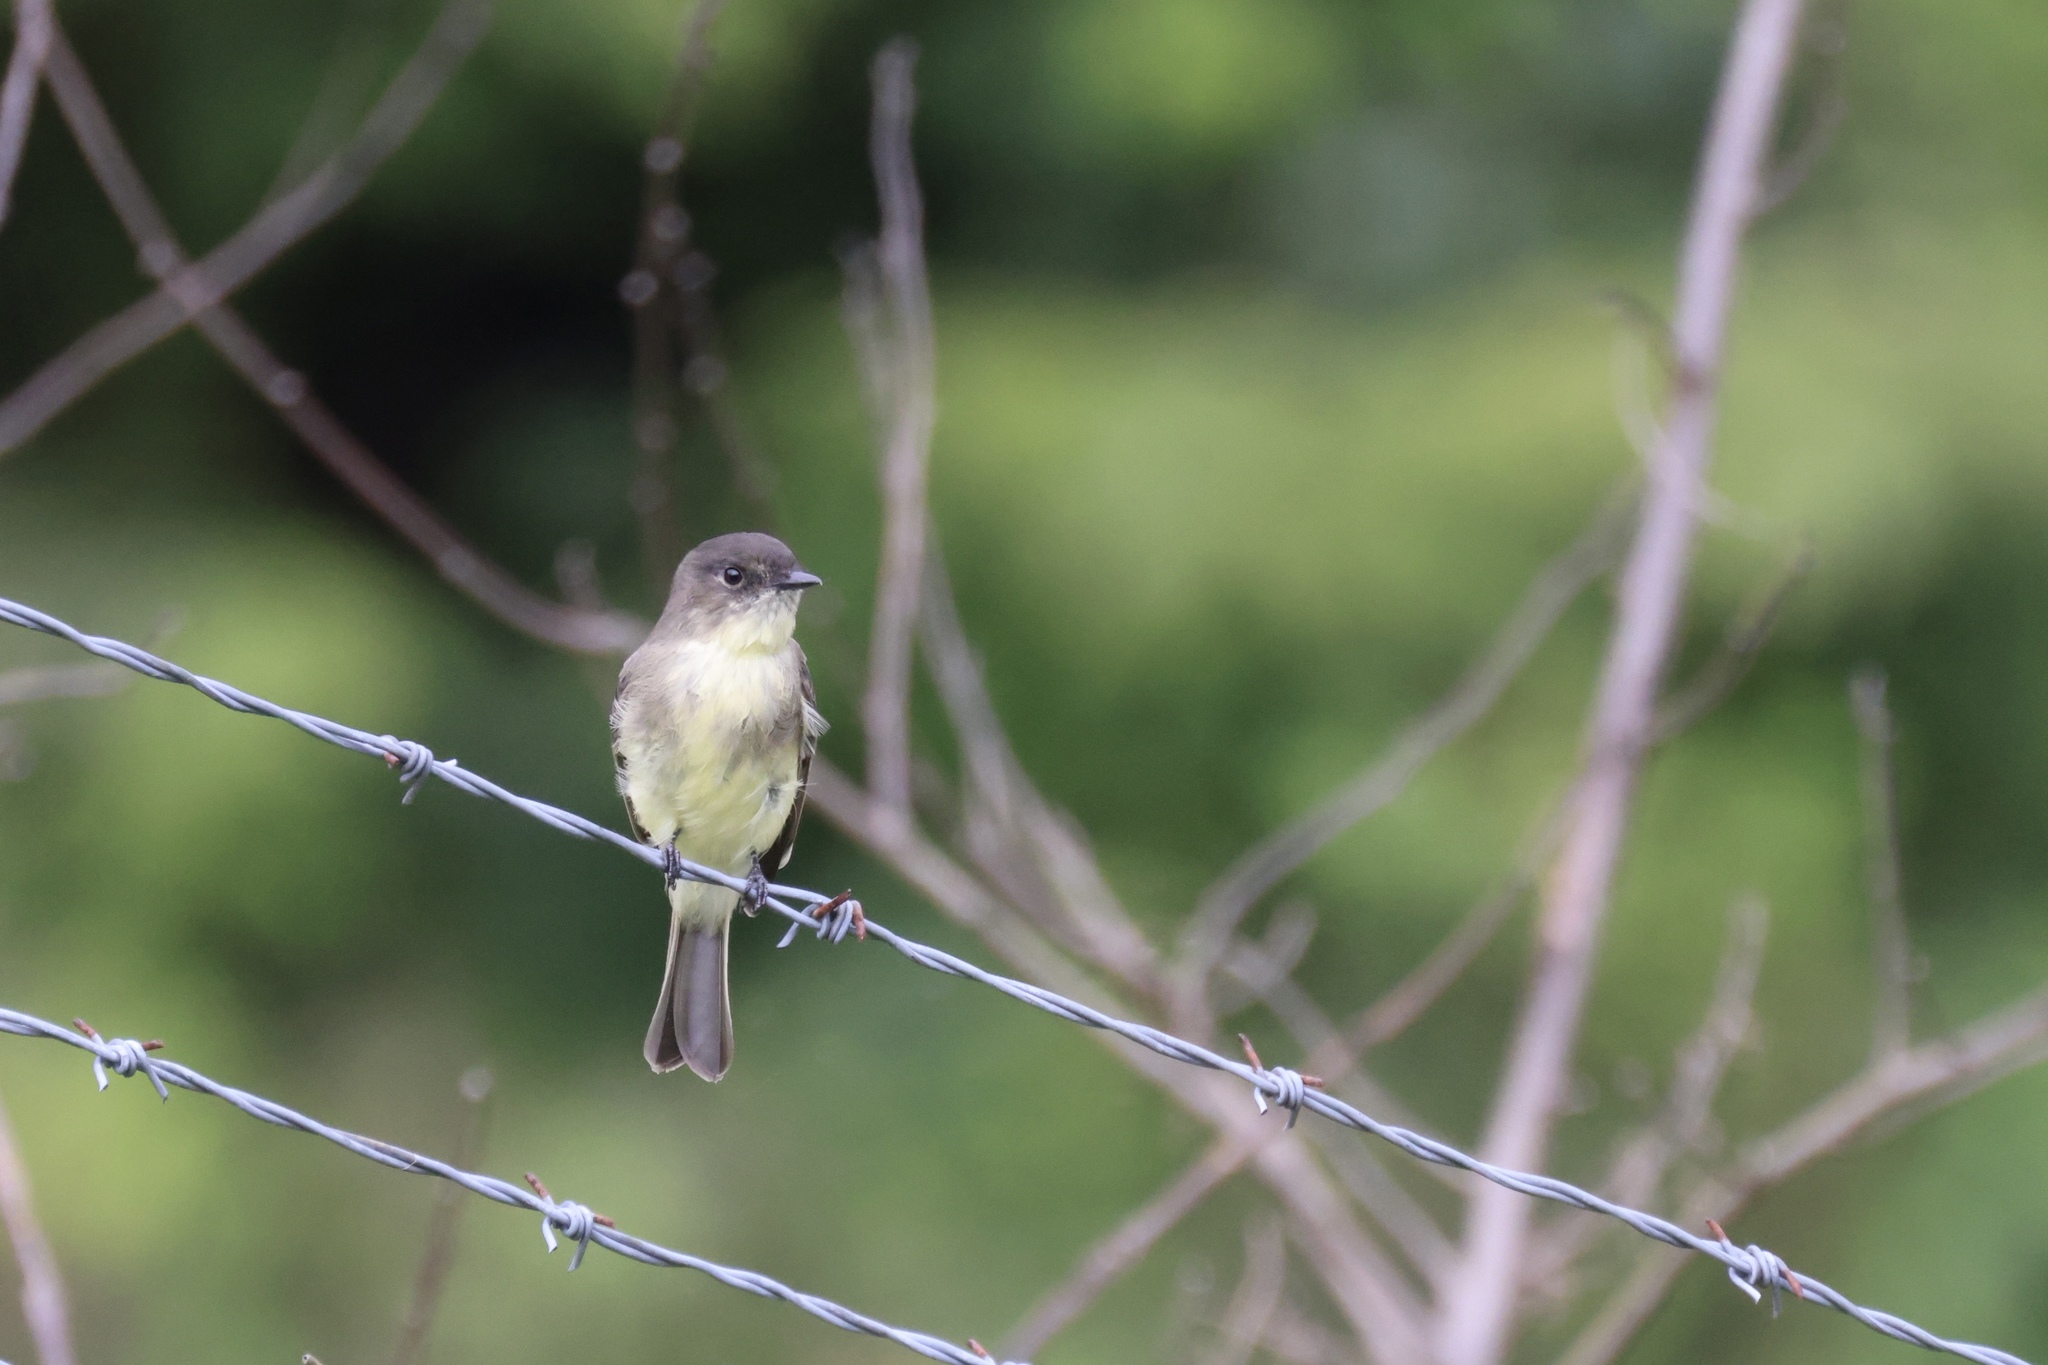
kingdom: Animalia
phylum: Chordata
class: Aves
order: Passeriformes
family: Tyrannidae
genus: Sayornis
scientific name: Sayornis phoebe
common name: Eastern phoebe
